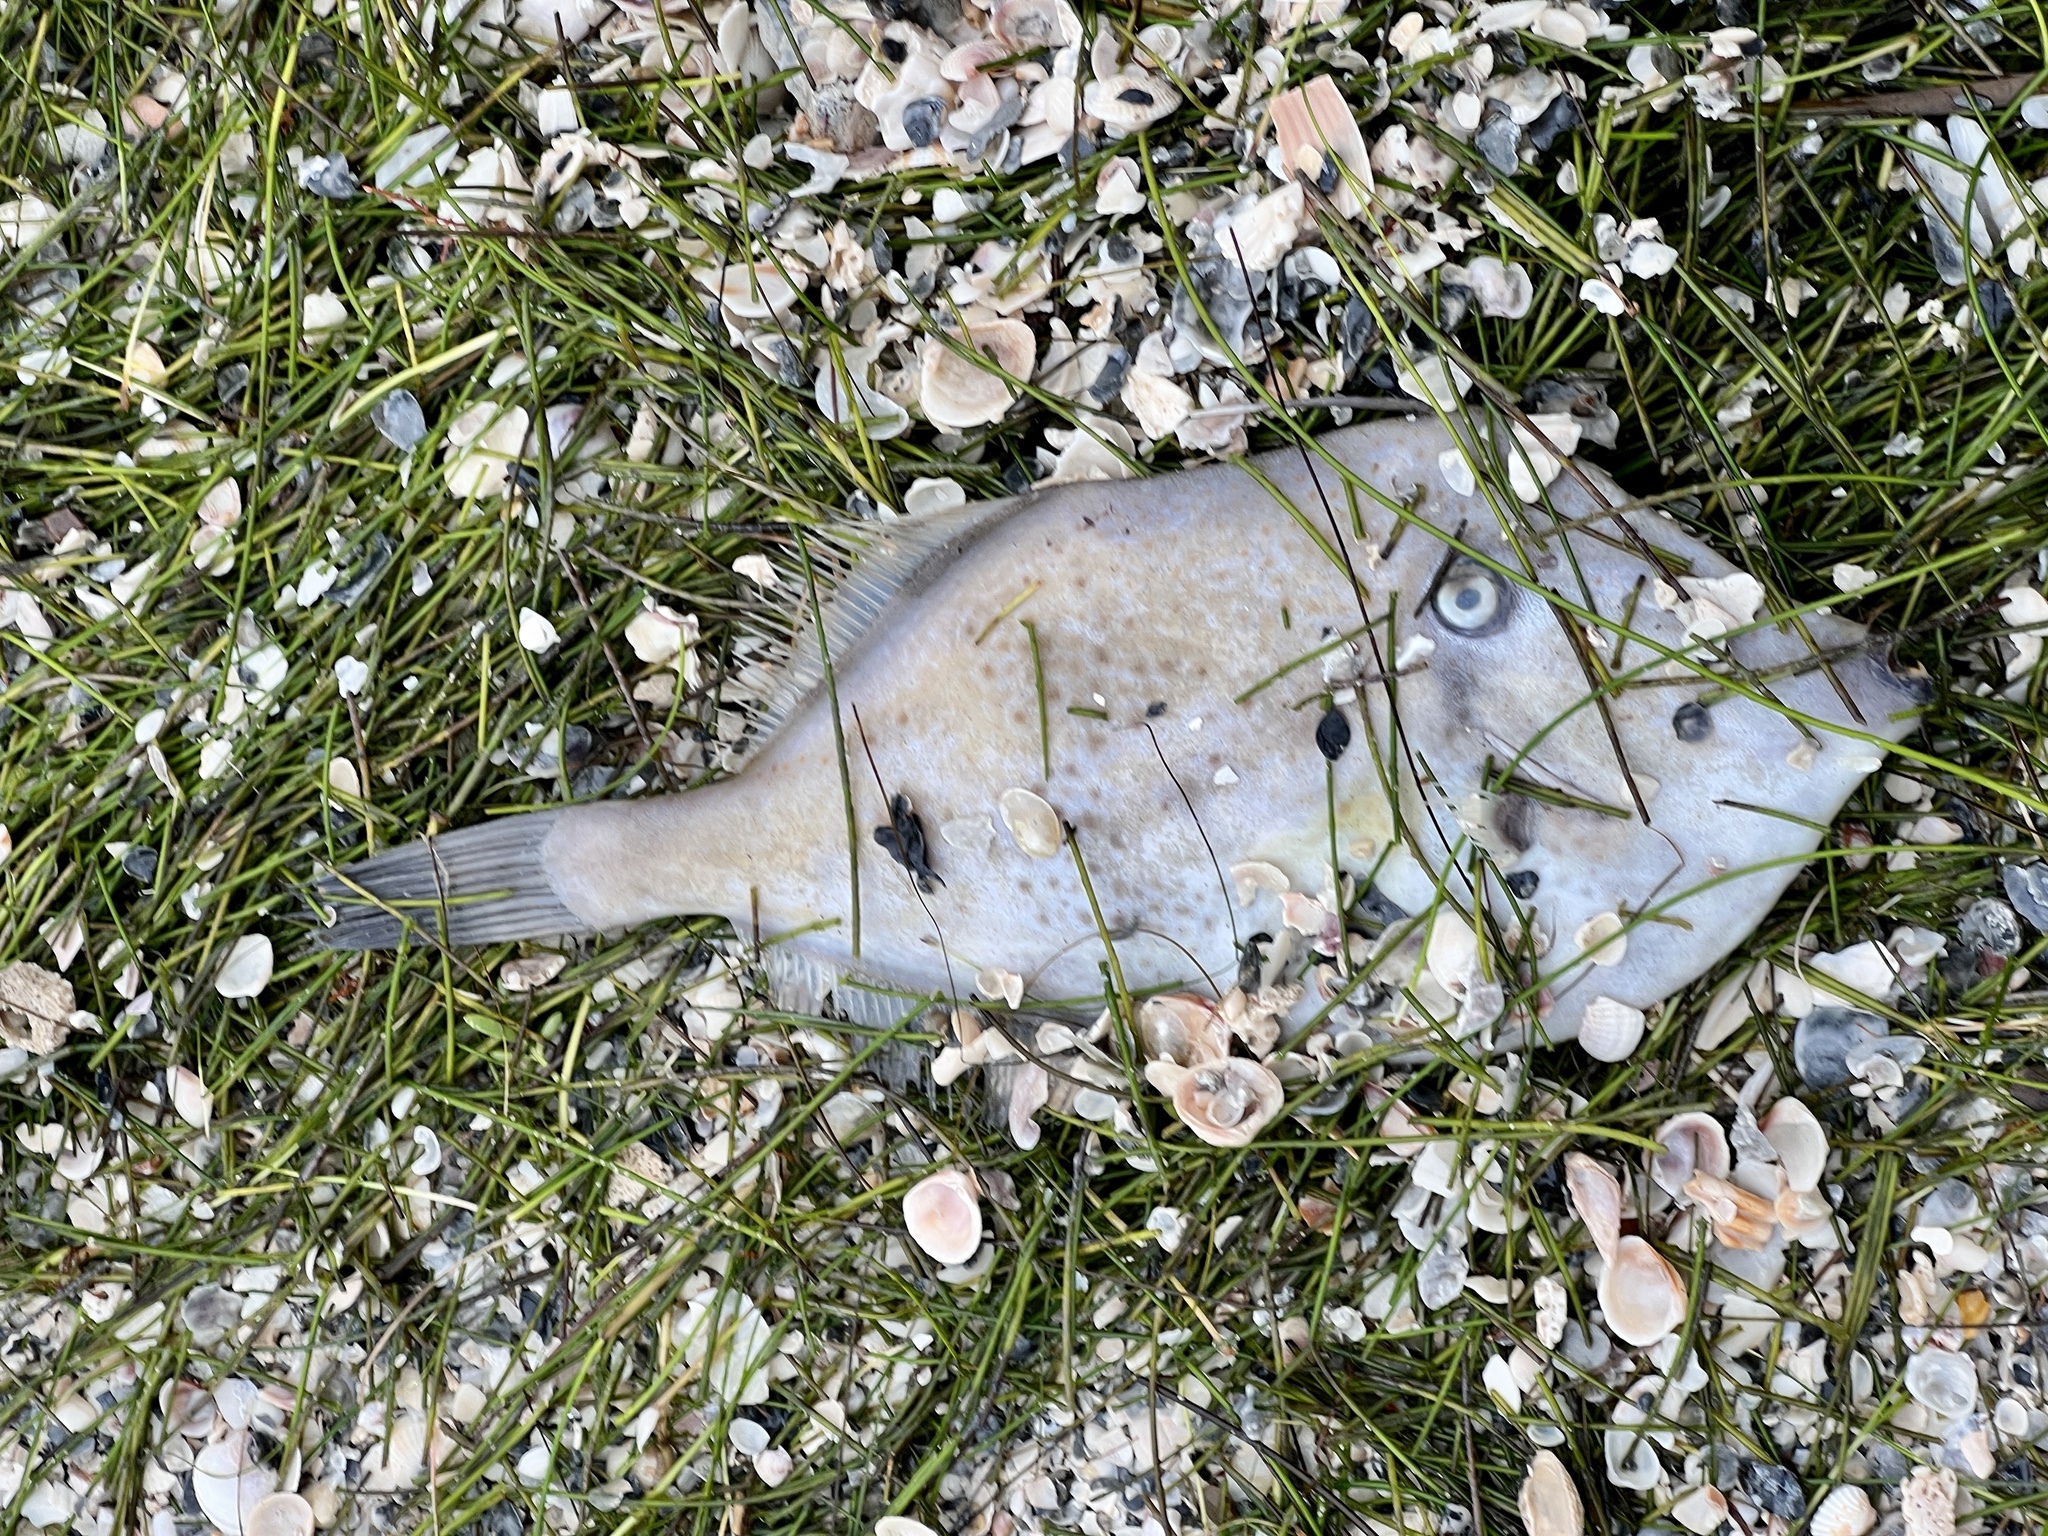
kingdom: Animalia
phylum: Chordata
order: Tetraodontiformes
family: Monacanthidae
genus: Aluterus
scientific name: Aluterus schoepfii
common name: Orange filefish
